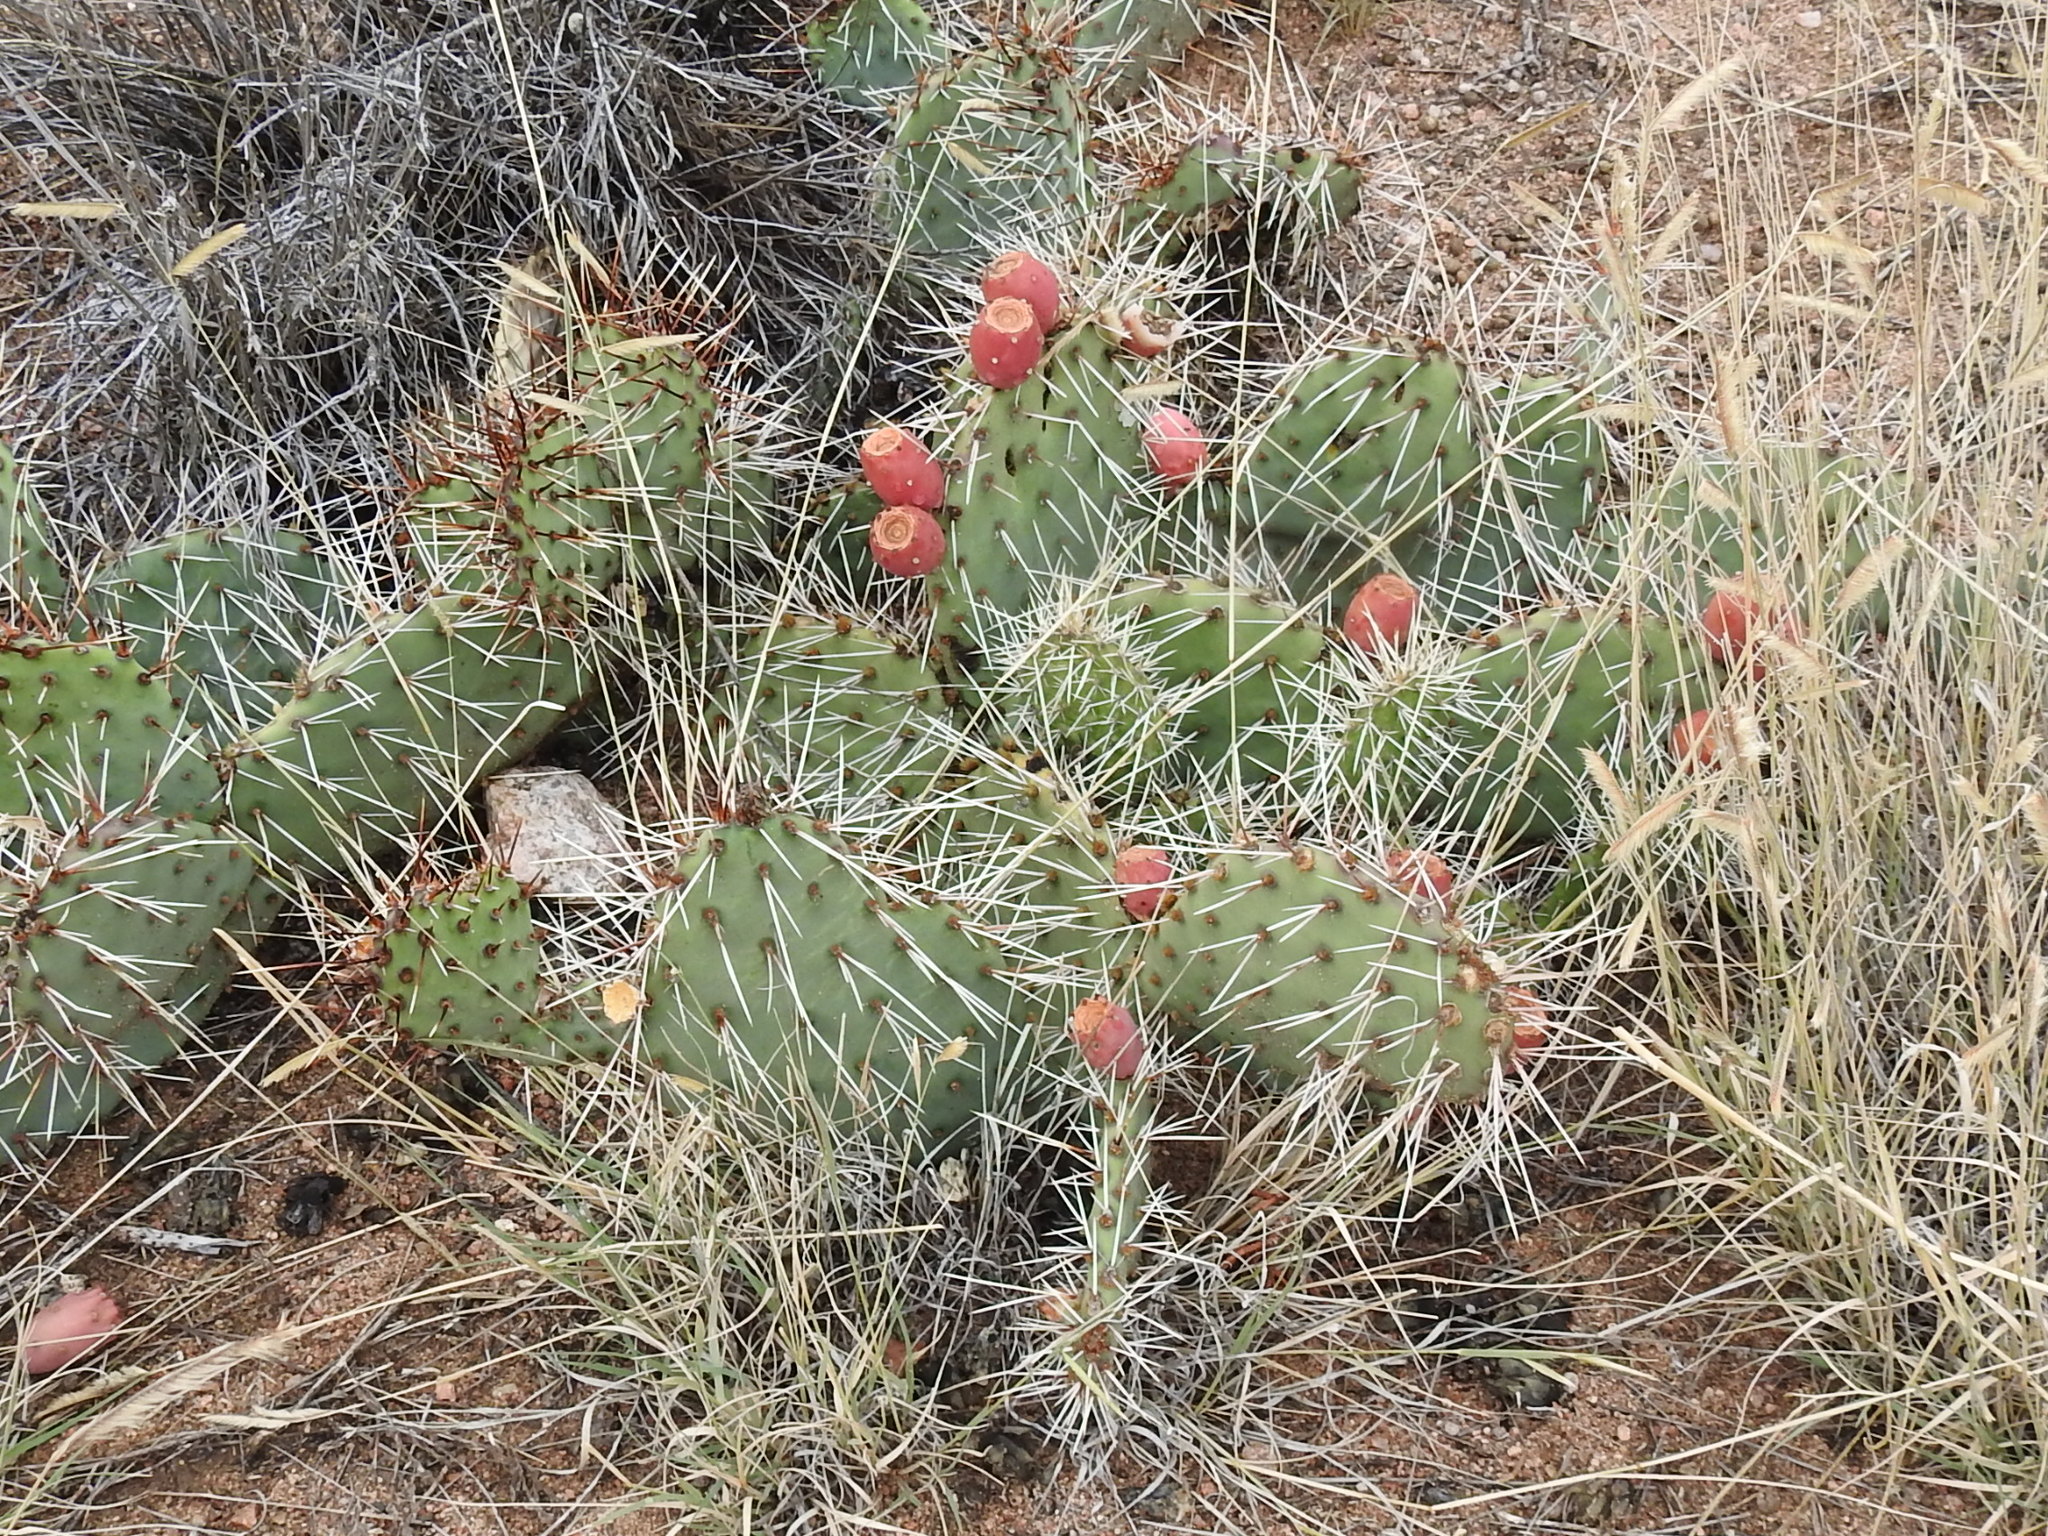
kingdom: Plantae
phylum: Tracheophyta
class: Magnoliopsida
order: Caryophyllales
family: Cactaceae
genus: Opuntia
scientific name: Opuntia macrorhiza
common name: Grassland pricklypear
